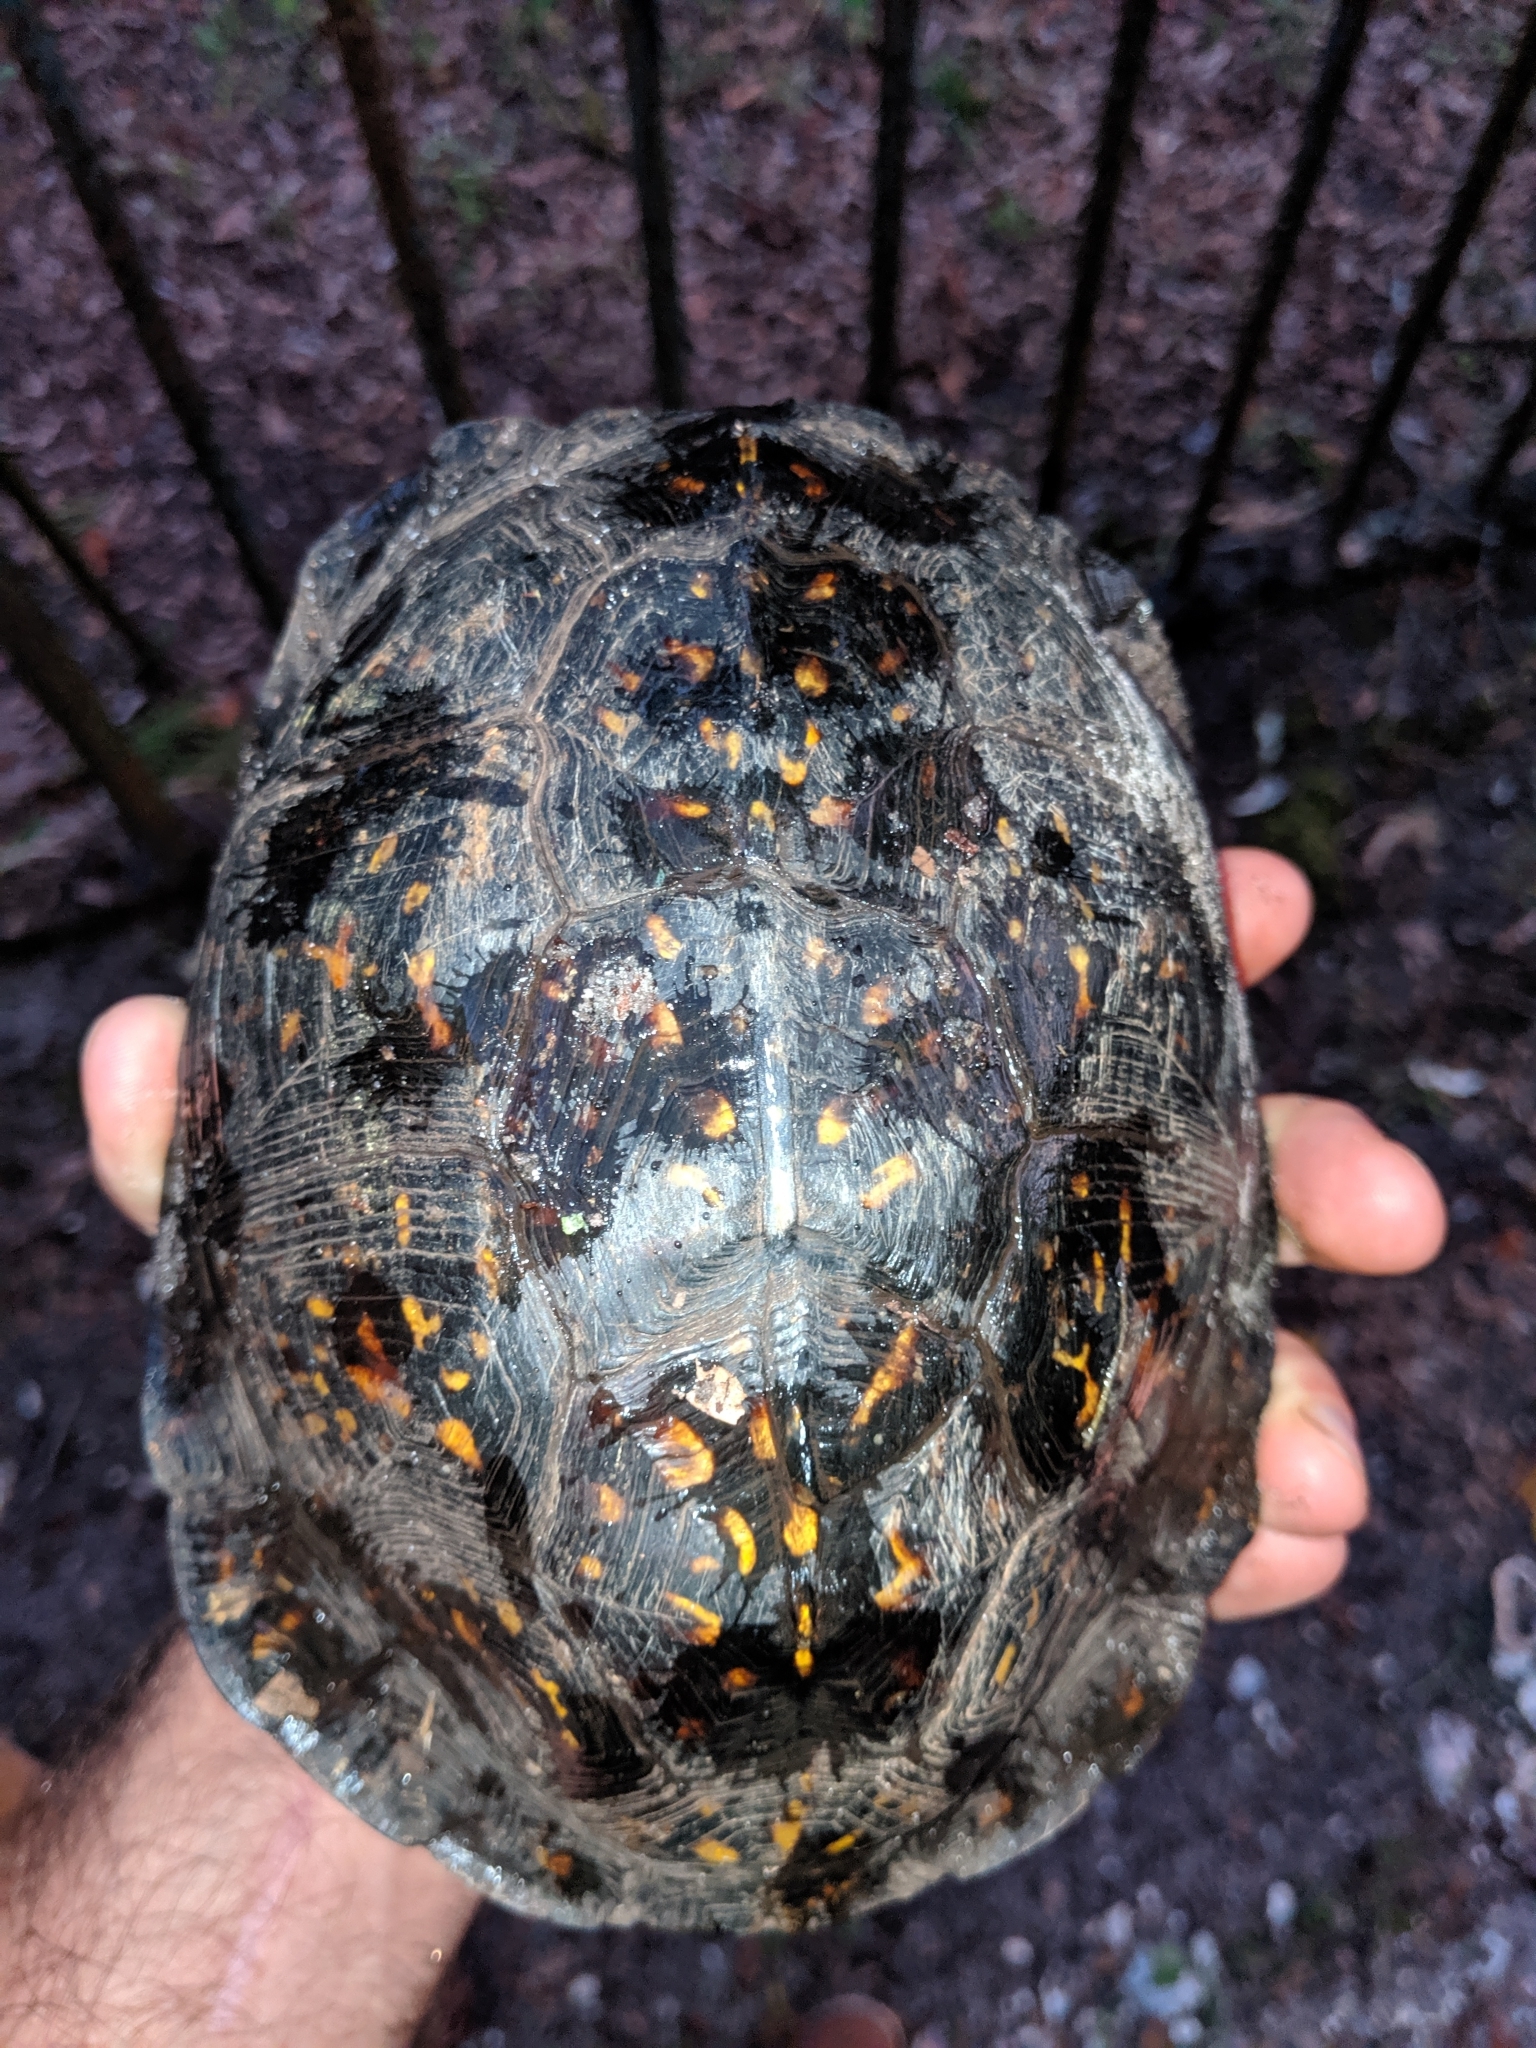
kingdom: Animalia
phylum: Chordata
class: Testudines
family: Emydidae
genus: Terrapene
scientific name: Terrapene carolina
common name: Common box turtle
